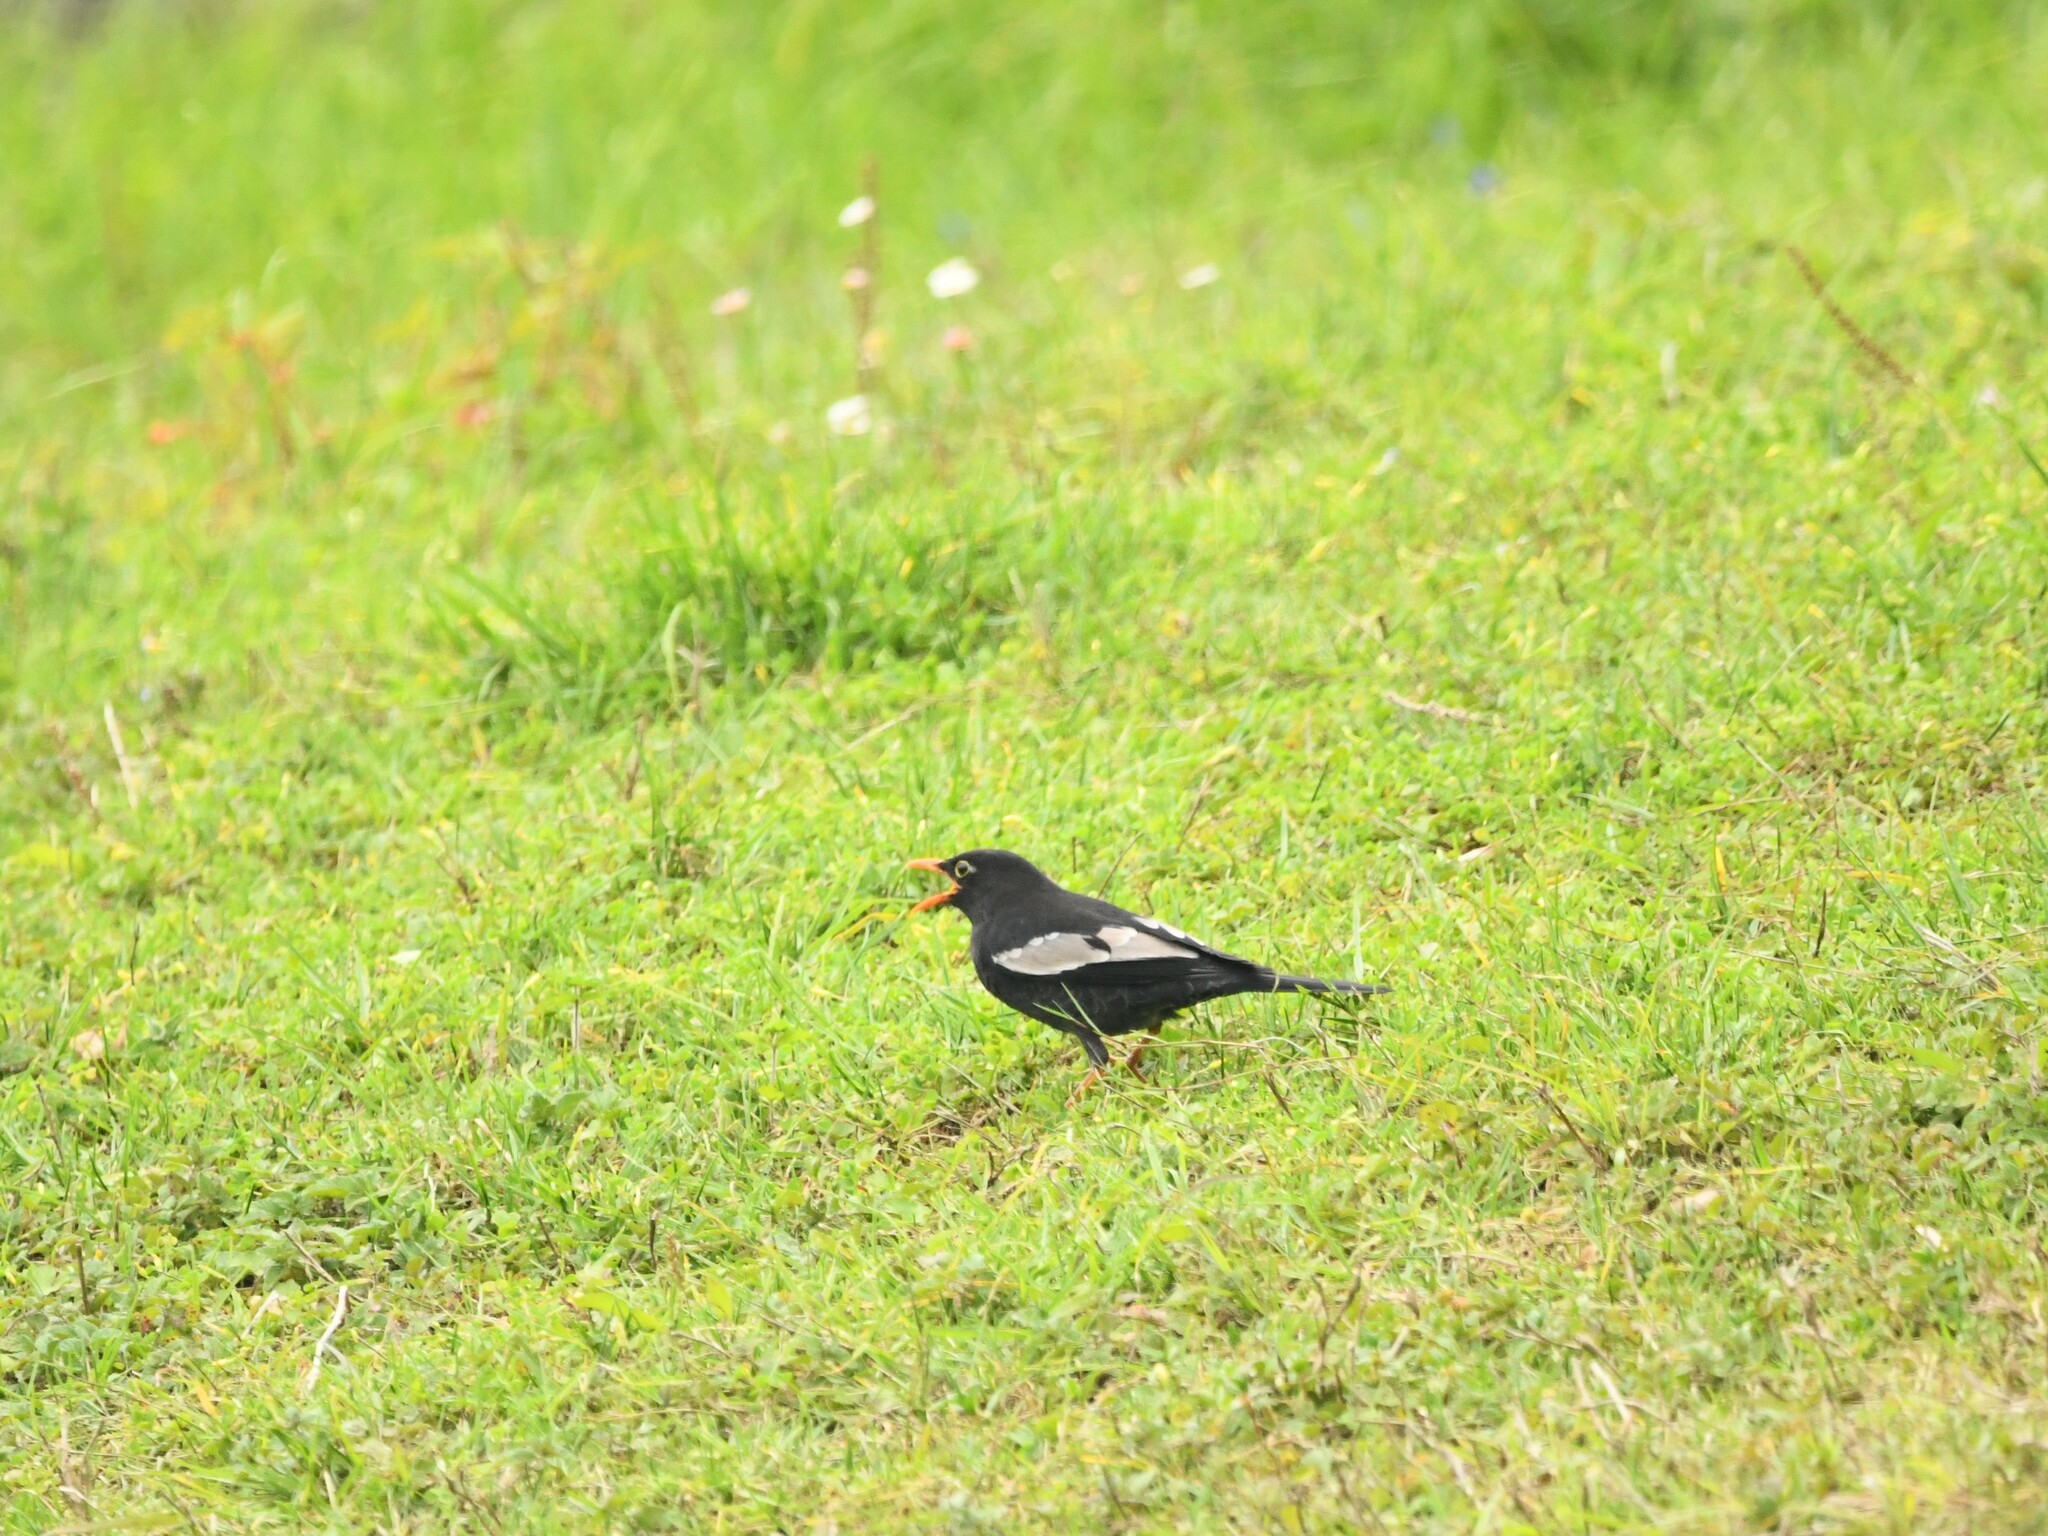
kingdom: Animalia
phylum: Chordata
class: Aves
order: Passeriformes
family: Turdidae
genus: Turdus
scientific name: Turdus boulboul
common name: Grey-winged blackbird
